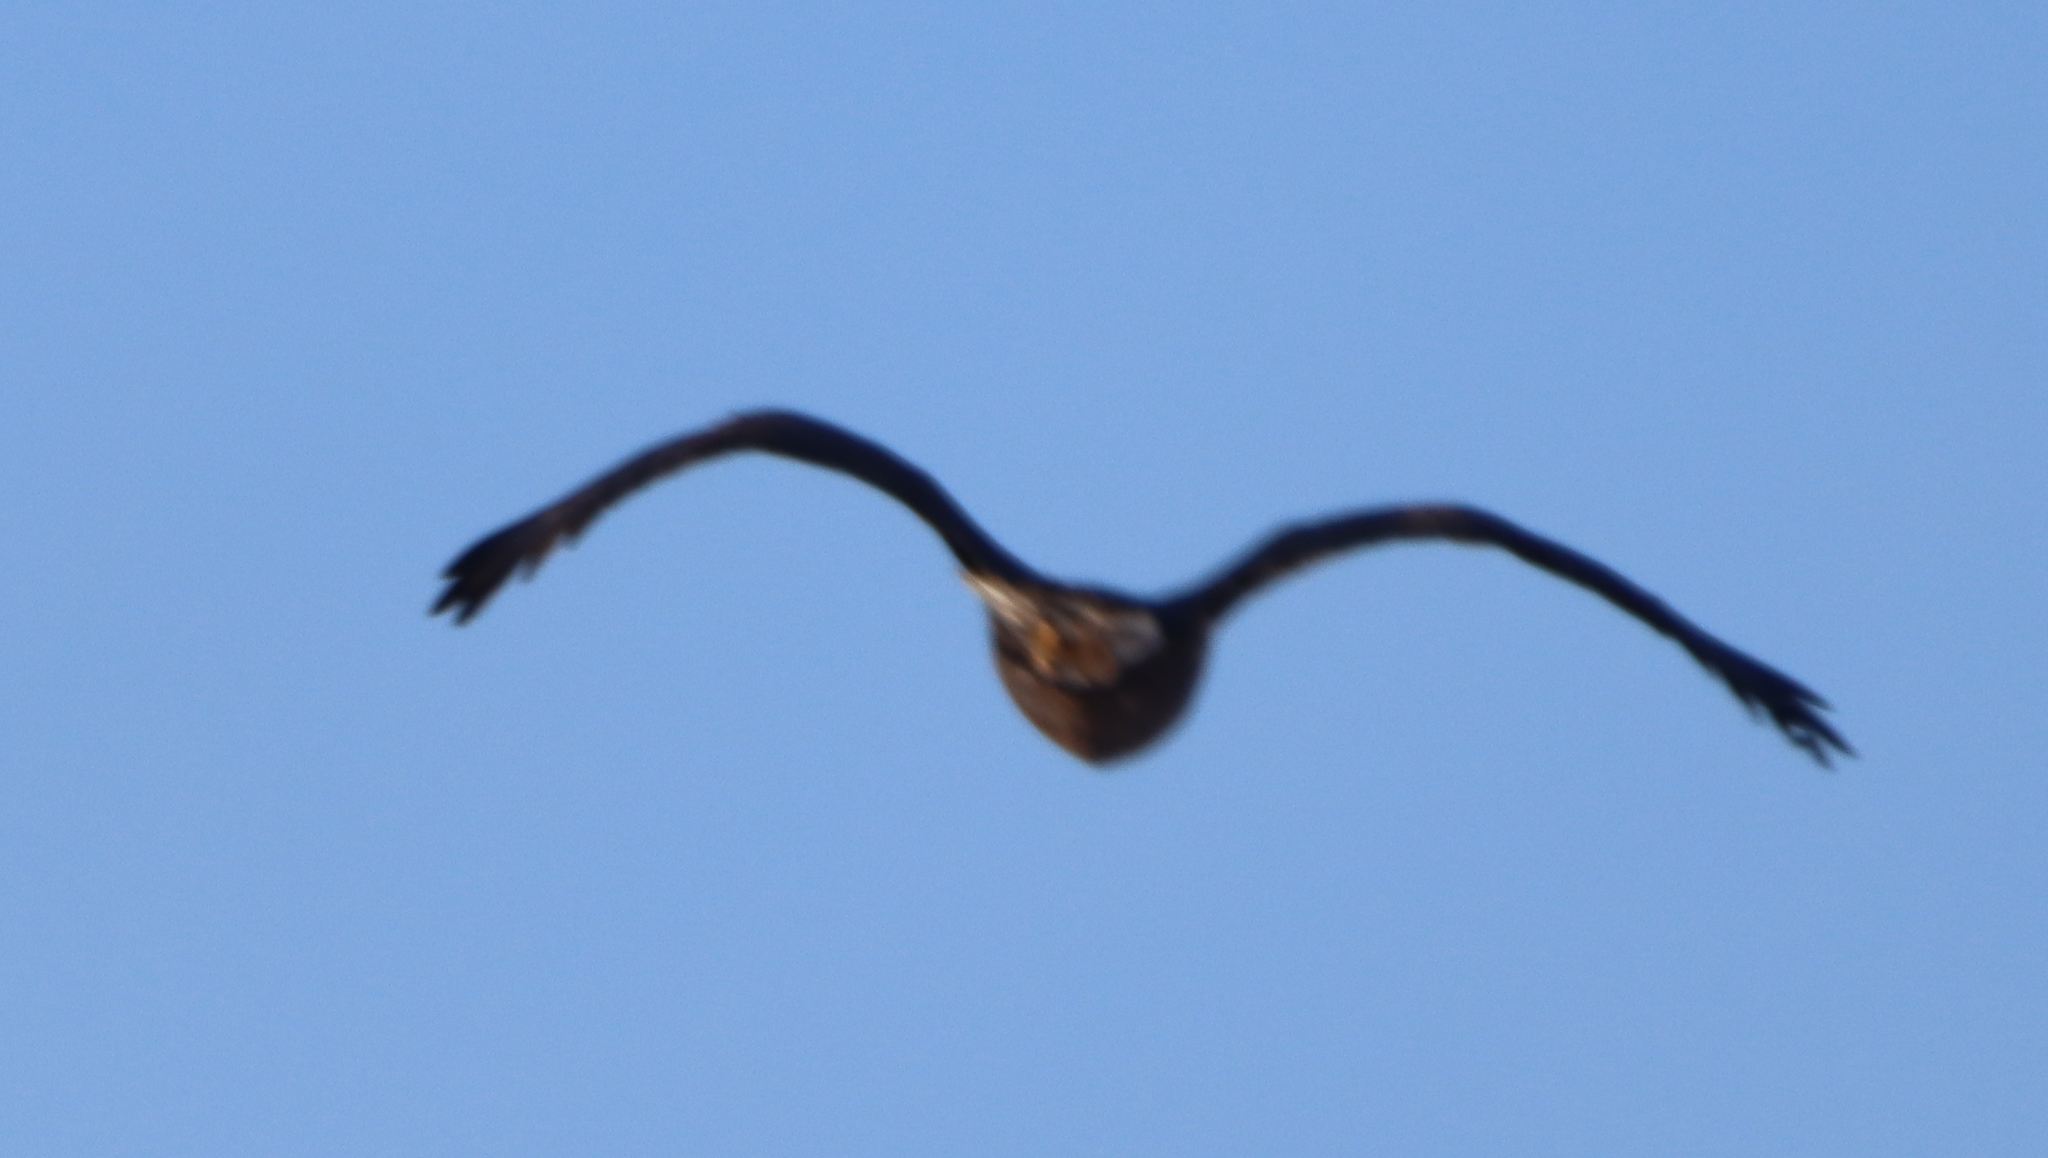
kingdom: Animalia
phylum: Chordata
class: Aves
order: Accipitriformes
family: Accipitridae
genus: Haliaeetus
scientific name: Haliaeetus leucocephalus
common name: Bald eagle
